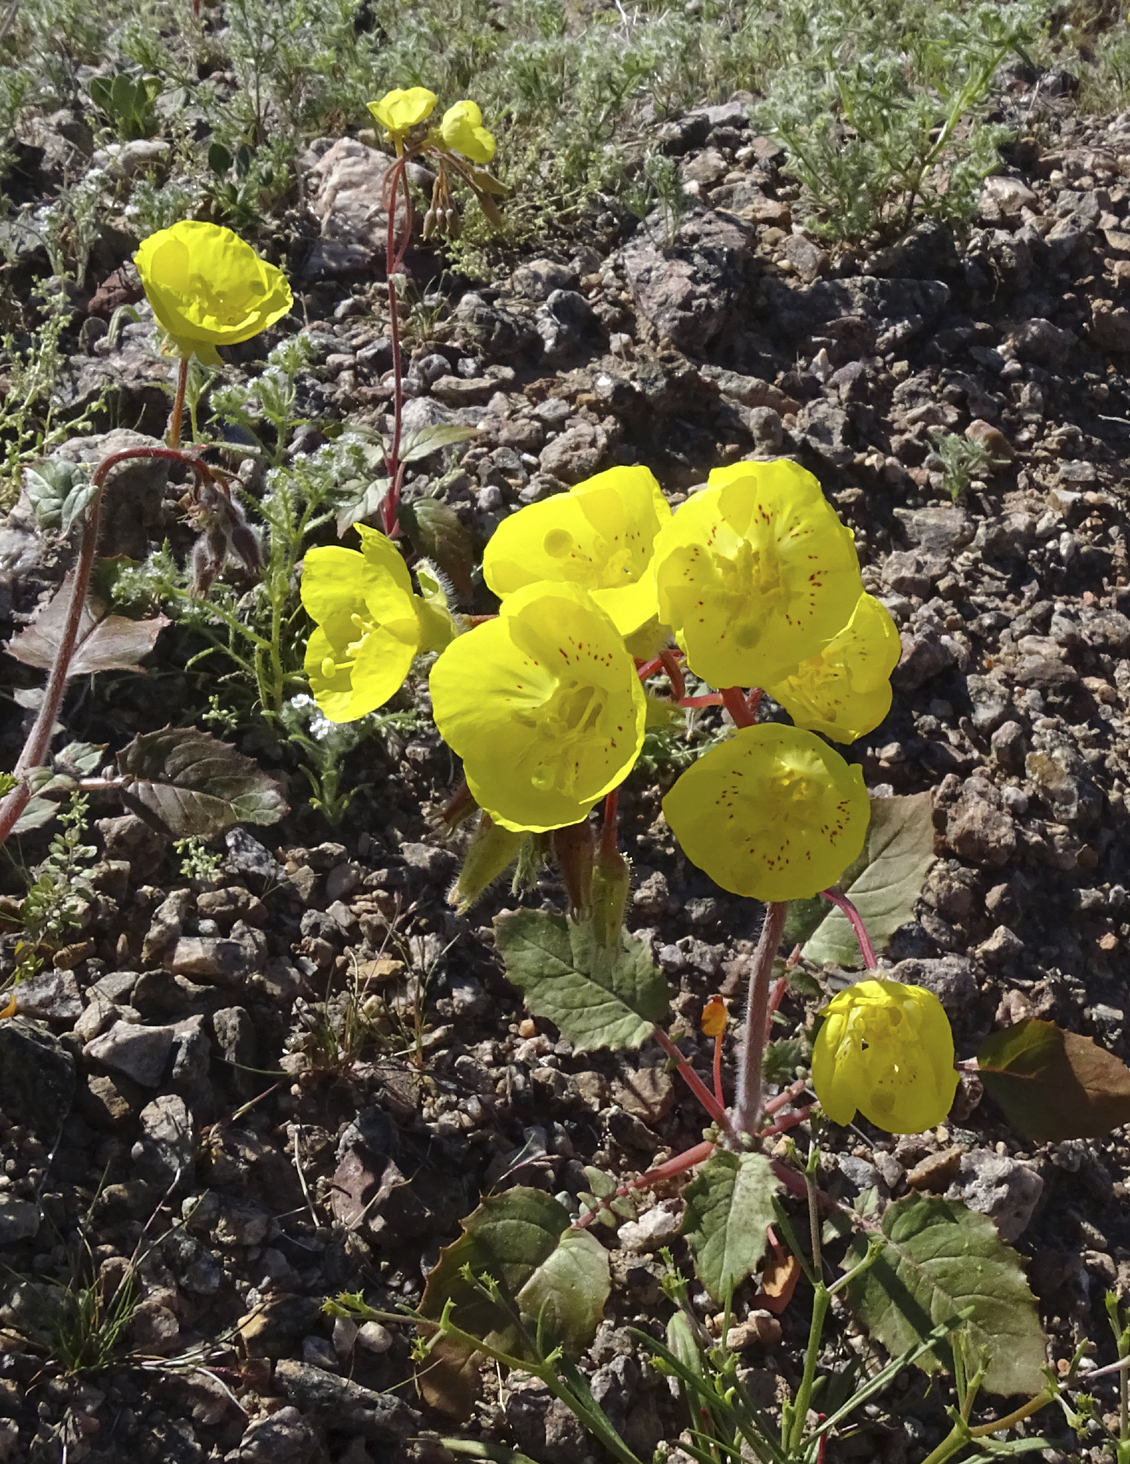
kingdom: Plantae
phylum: Tracheophyta
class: Magnoliopsida
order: Myrtales
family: Onagraceae
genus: Chylismia
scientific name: Chylismia brevipes
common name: Yellow cups
